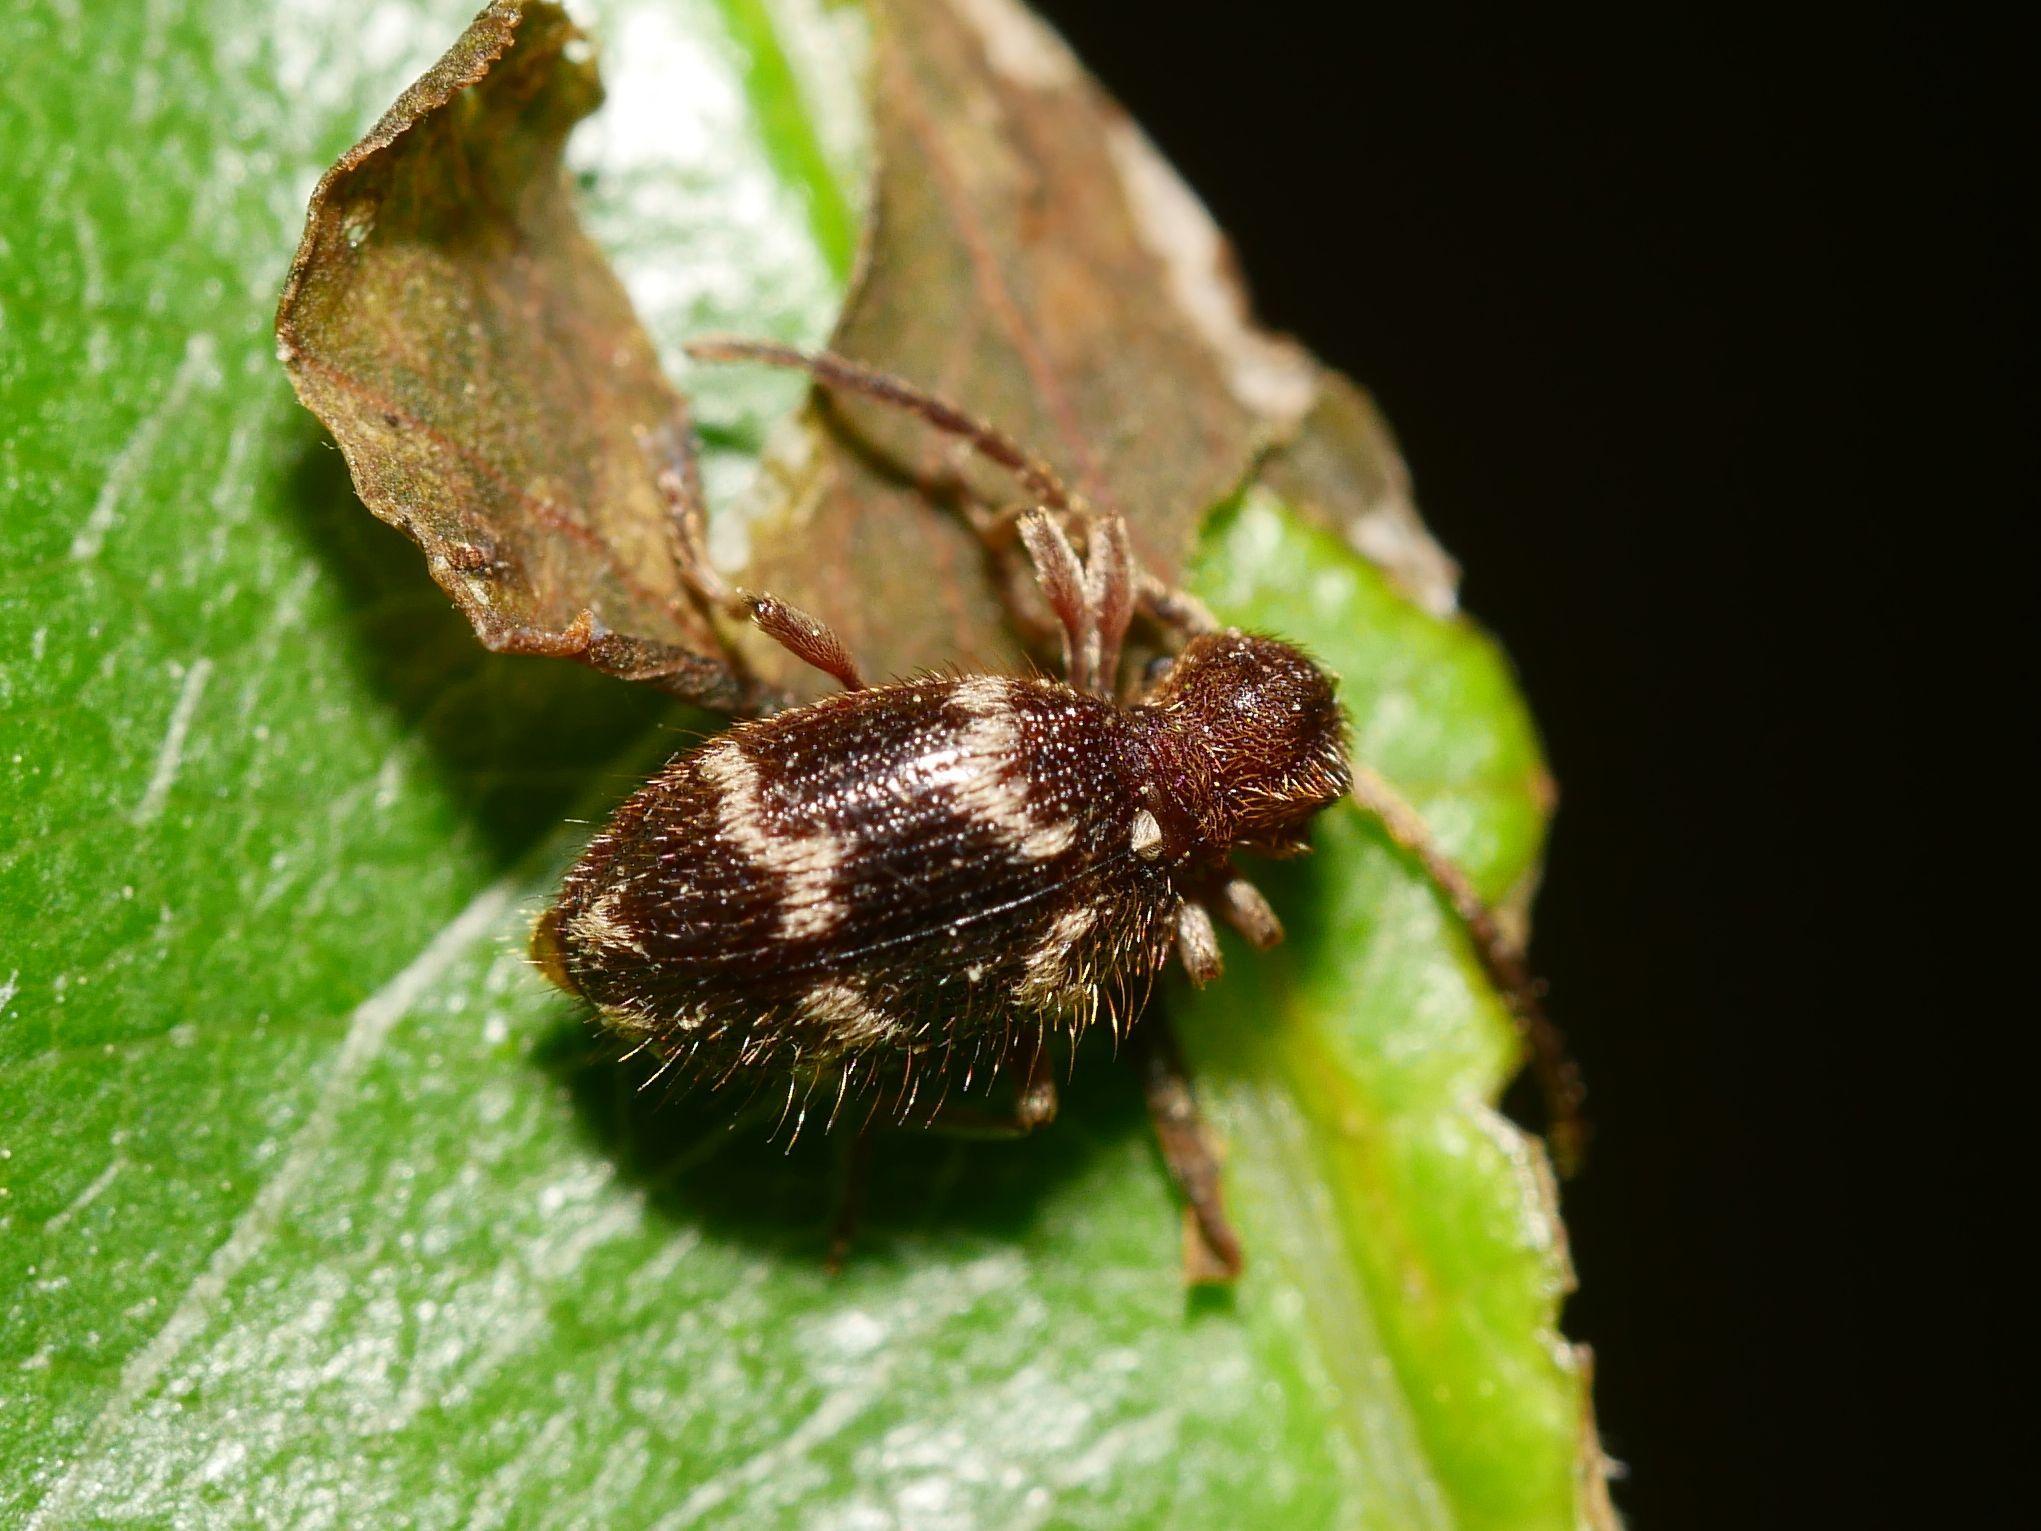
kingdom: Animalia
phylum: Arthropoda
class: Insecta
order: Coleoptera
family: Ptinidae
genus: Ptinus
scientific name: Ptinus rufipes
